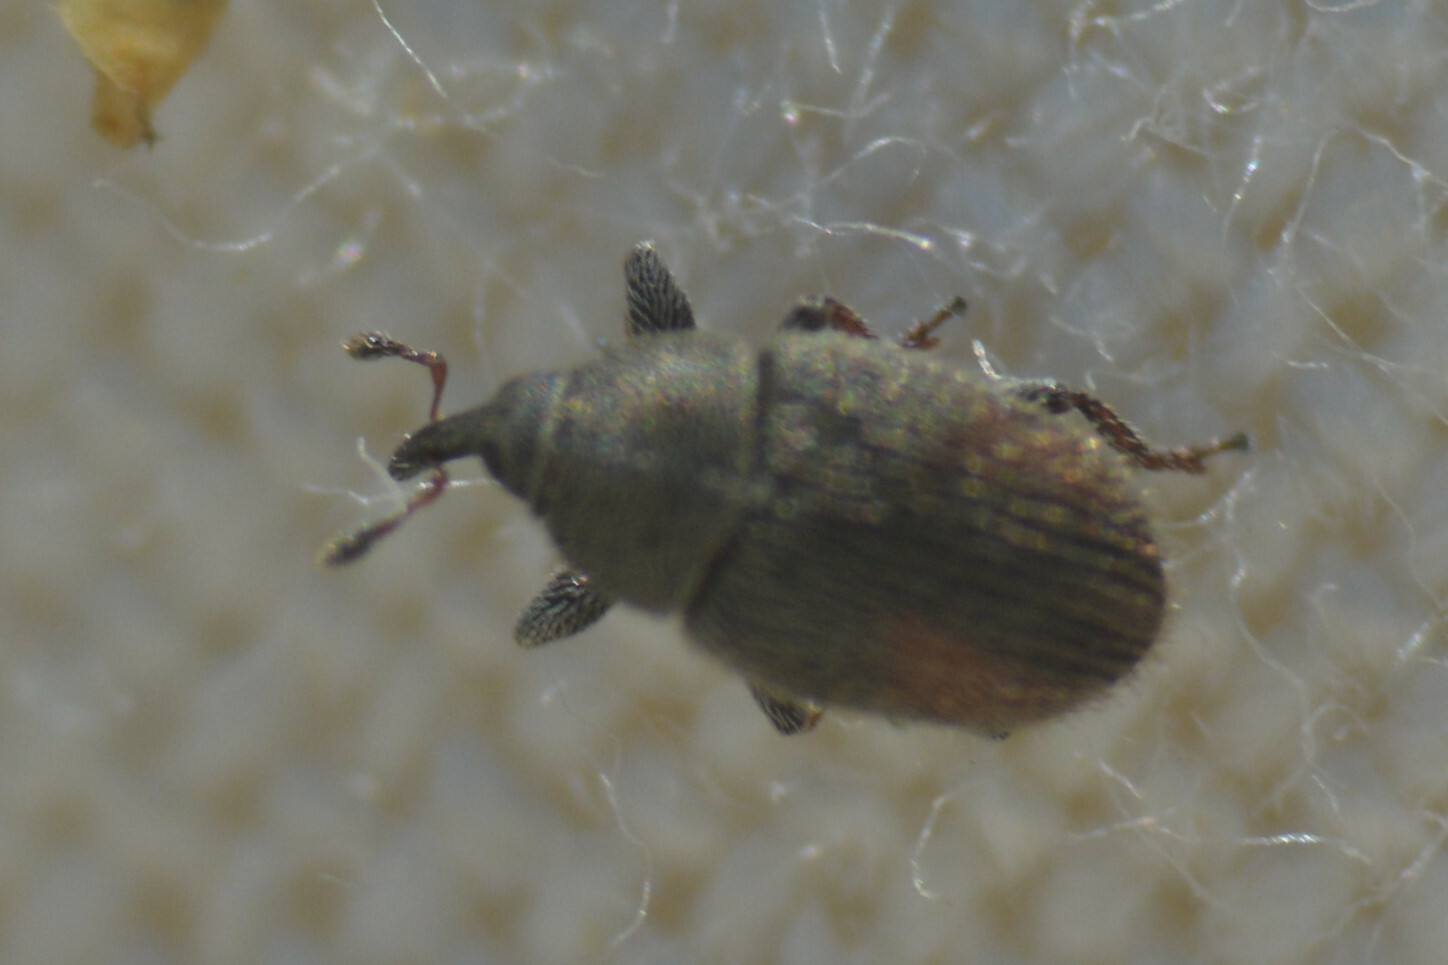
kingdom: Animalia
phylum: Arthropoda
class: Insecta
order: Coleoptera
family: Curculionidae
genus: Mecinus
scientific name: Mecinus pascuorum
